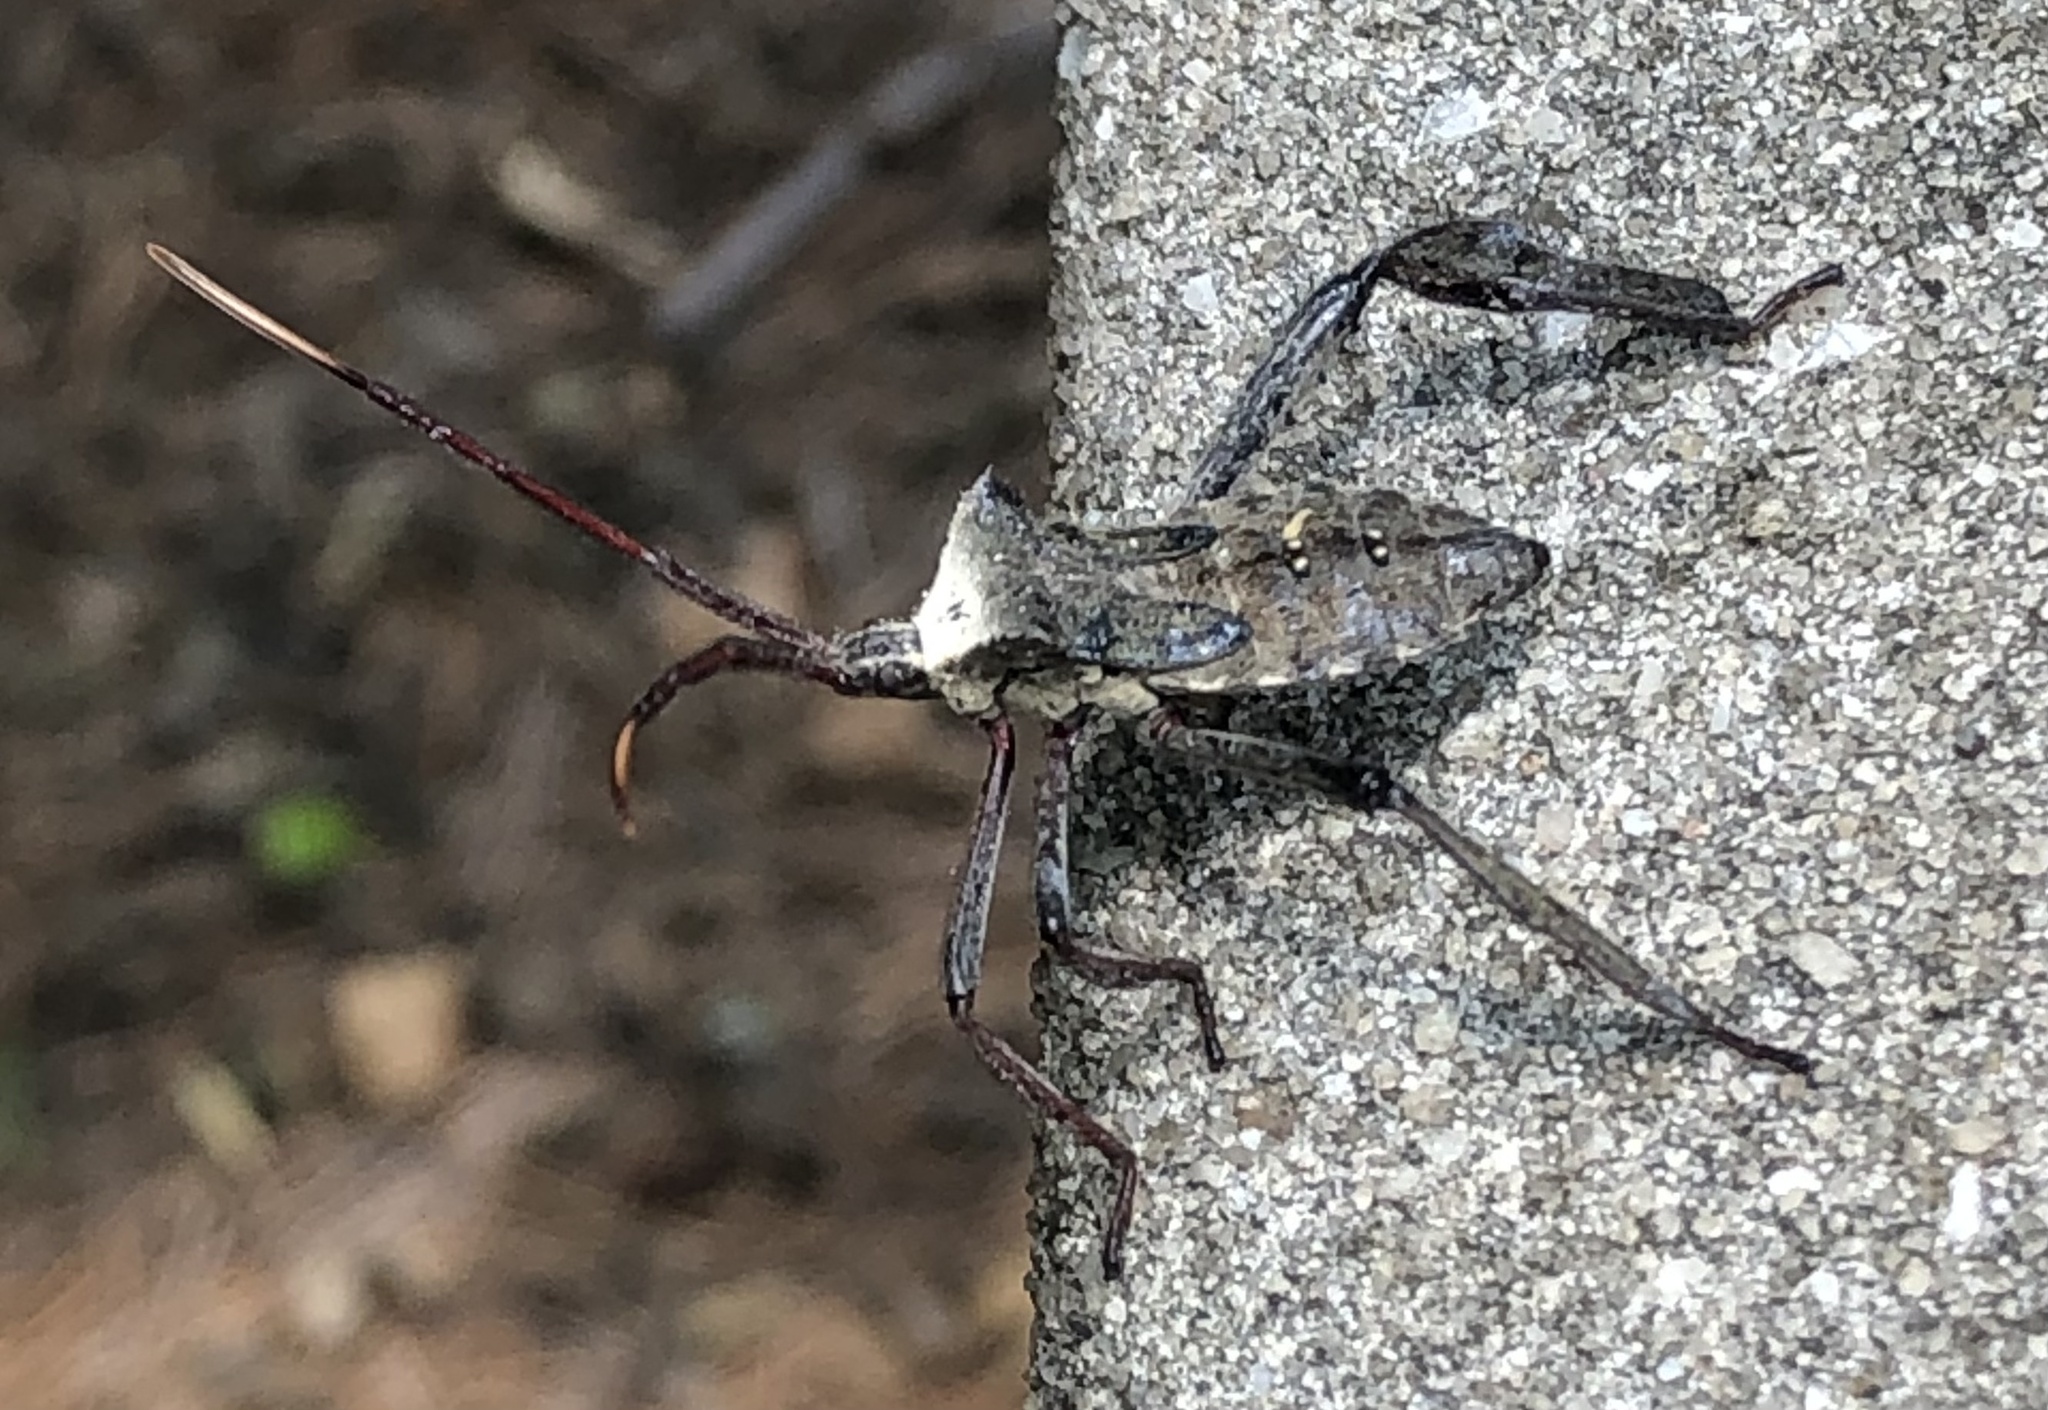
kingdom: Animalia
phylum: Arthropoda
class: Insecta
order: Hemiptera
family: Coreidae
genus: Acanthocephala
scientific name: Acanthocephala declivis
